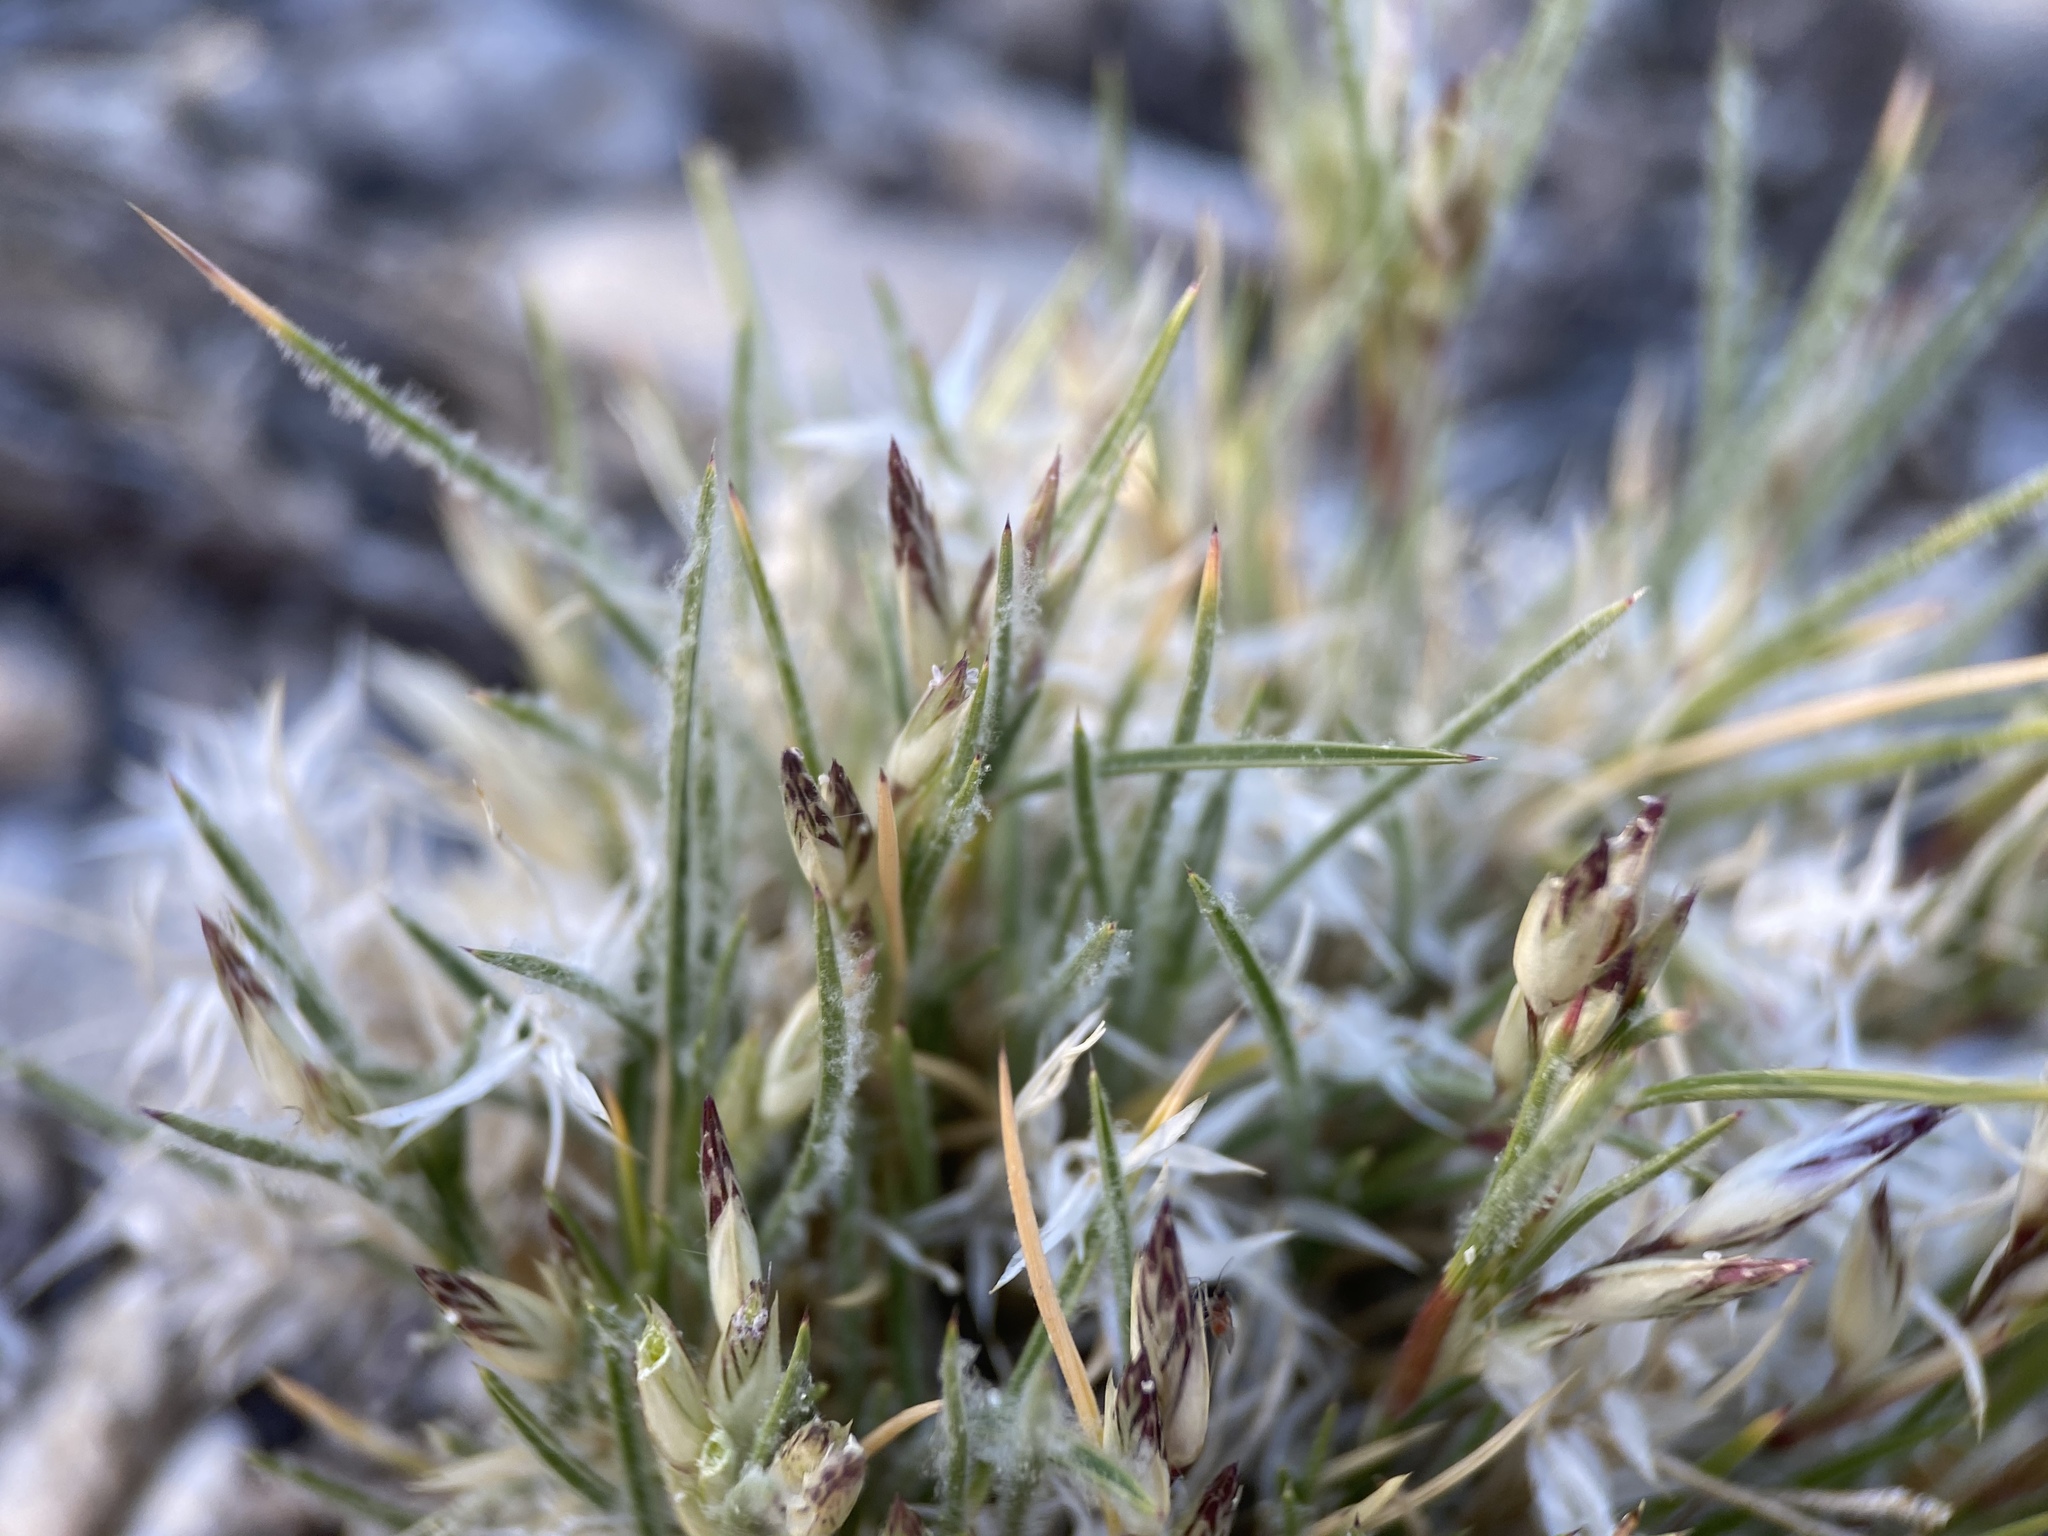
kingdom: Plantae
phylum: Tracheophyta
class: Liliopsida
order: Poales
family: Poaceae
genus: Dasyochloa
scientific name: Dasyochloa pulchella
